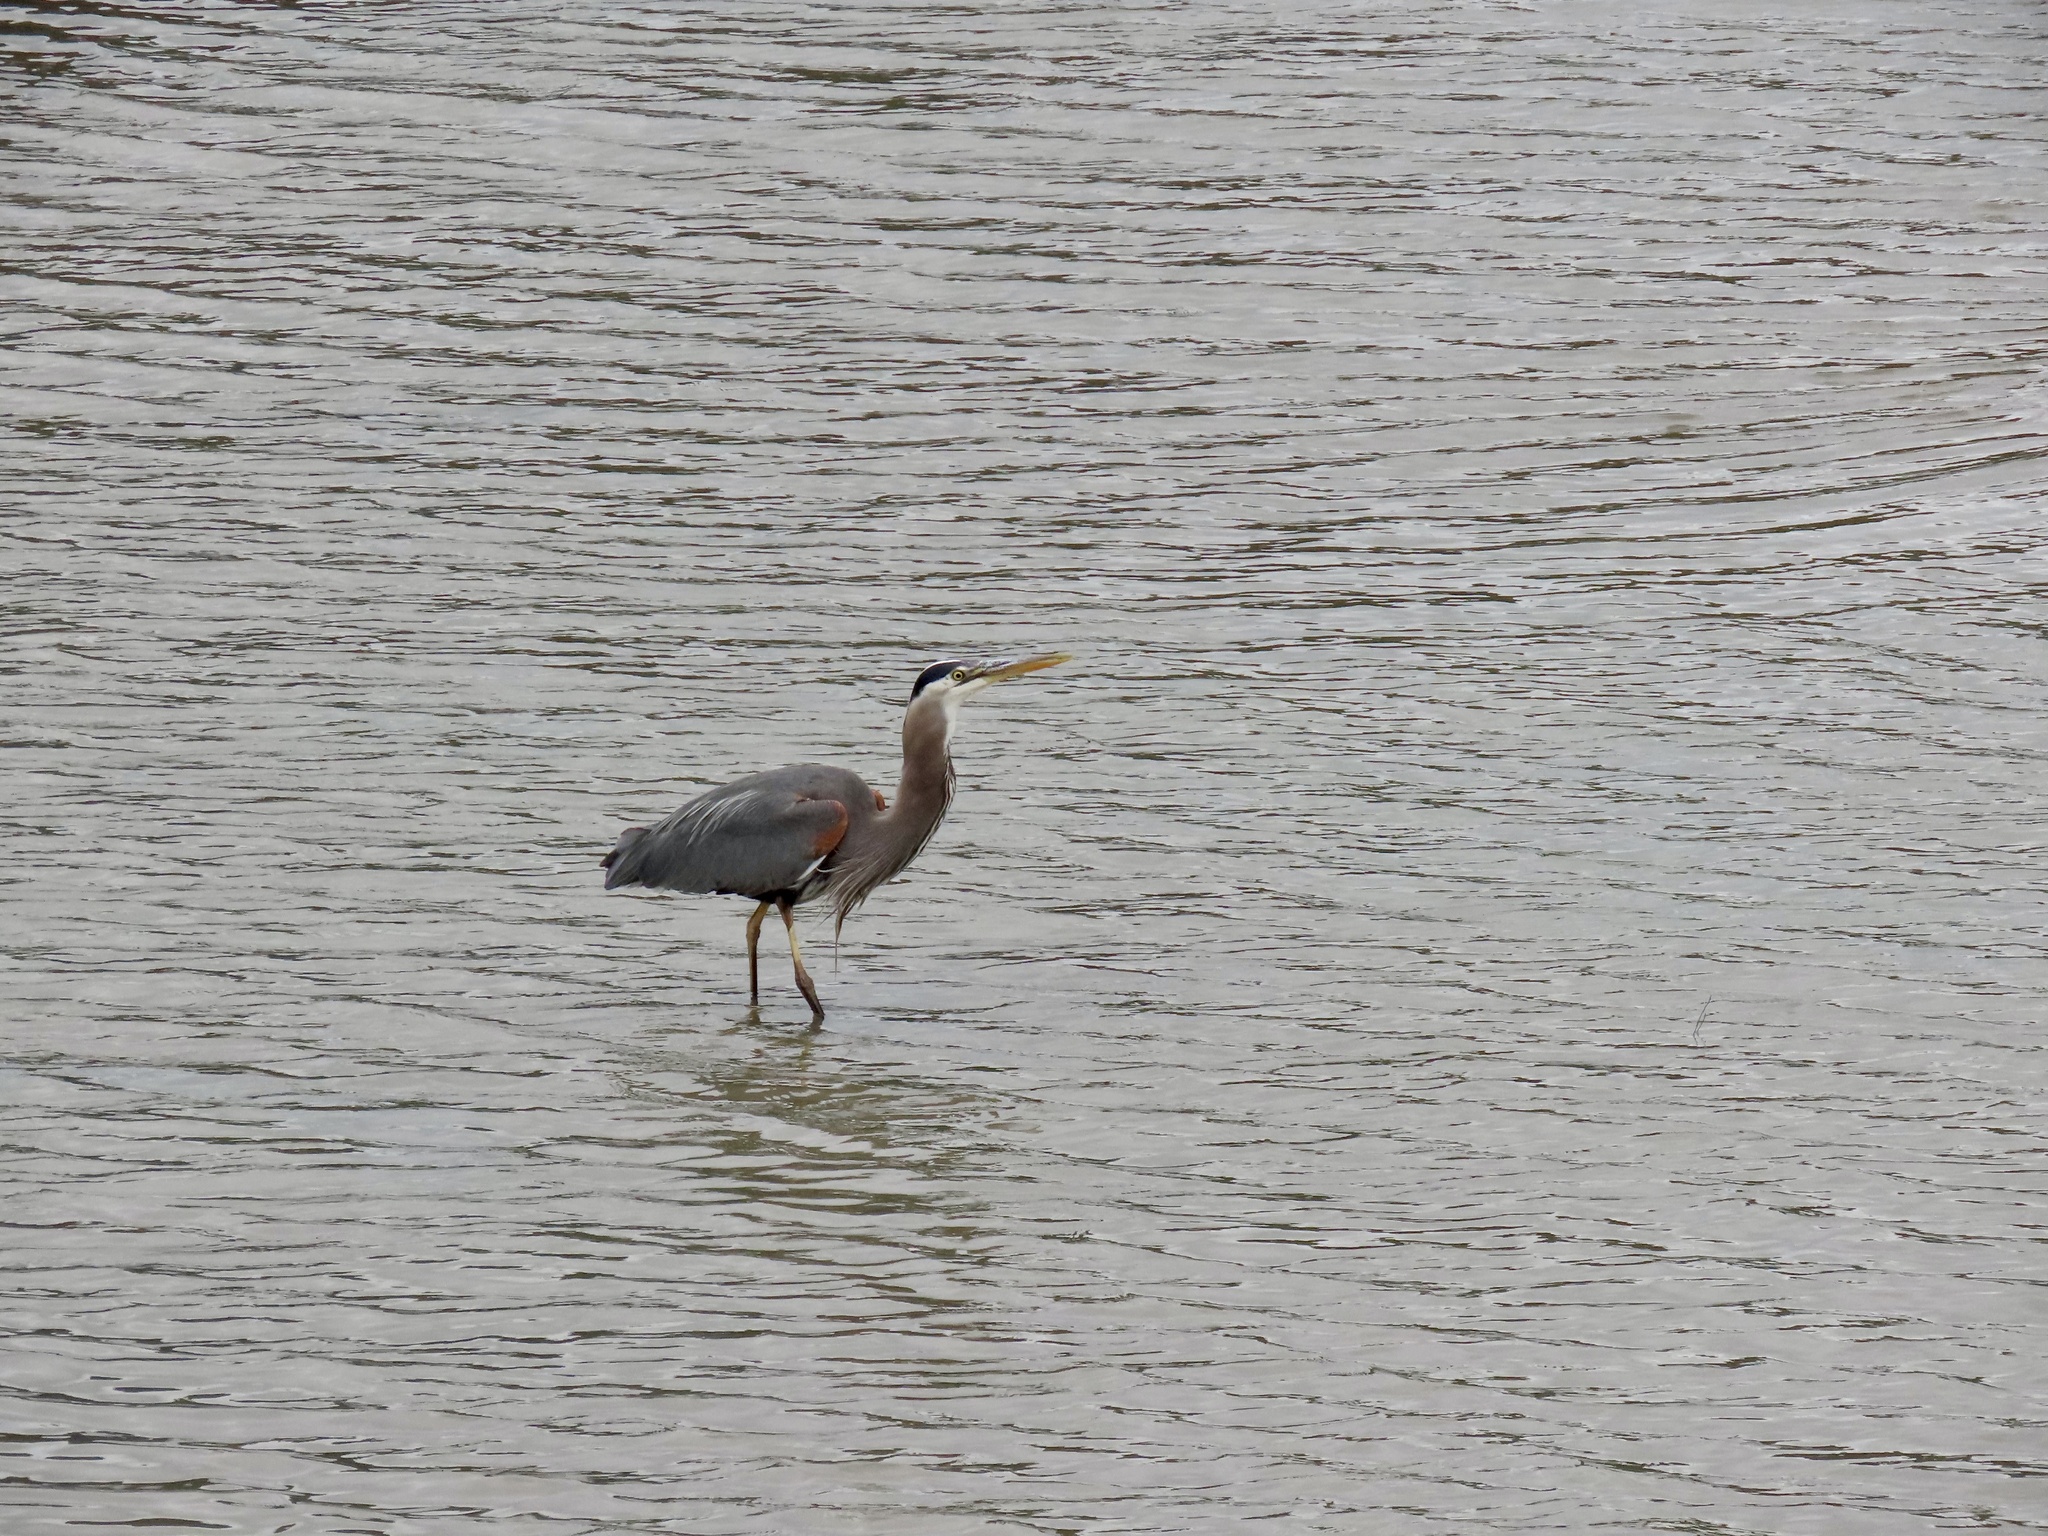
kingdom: Animalia
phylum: Chordata
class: Aves
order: Pelecaniformes
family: Ardeidae
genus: Ardea
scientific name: Ardea herodias
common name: Great blue heron
